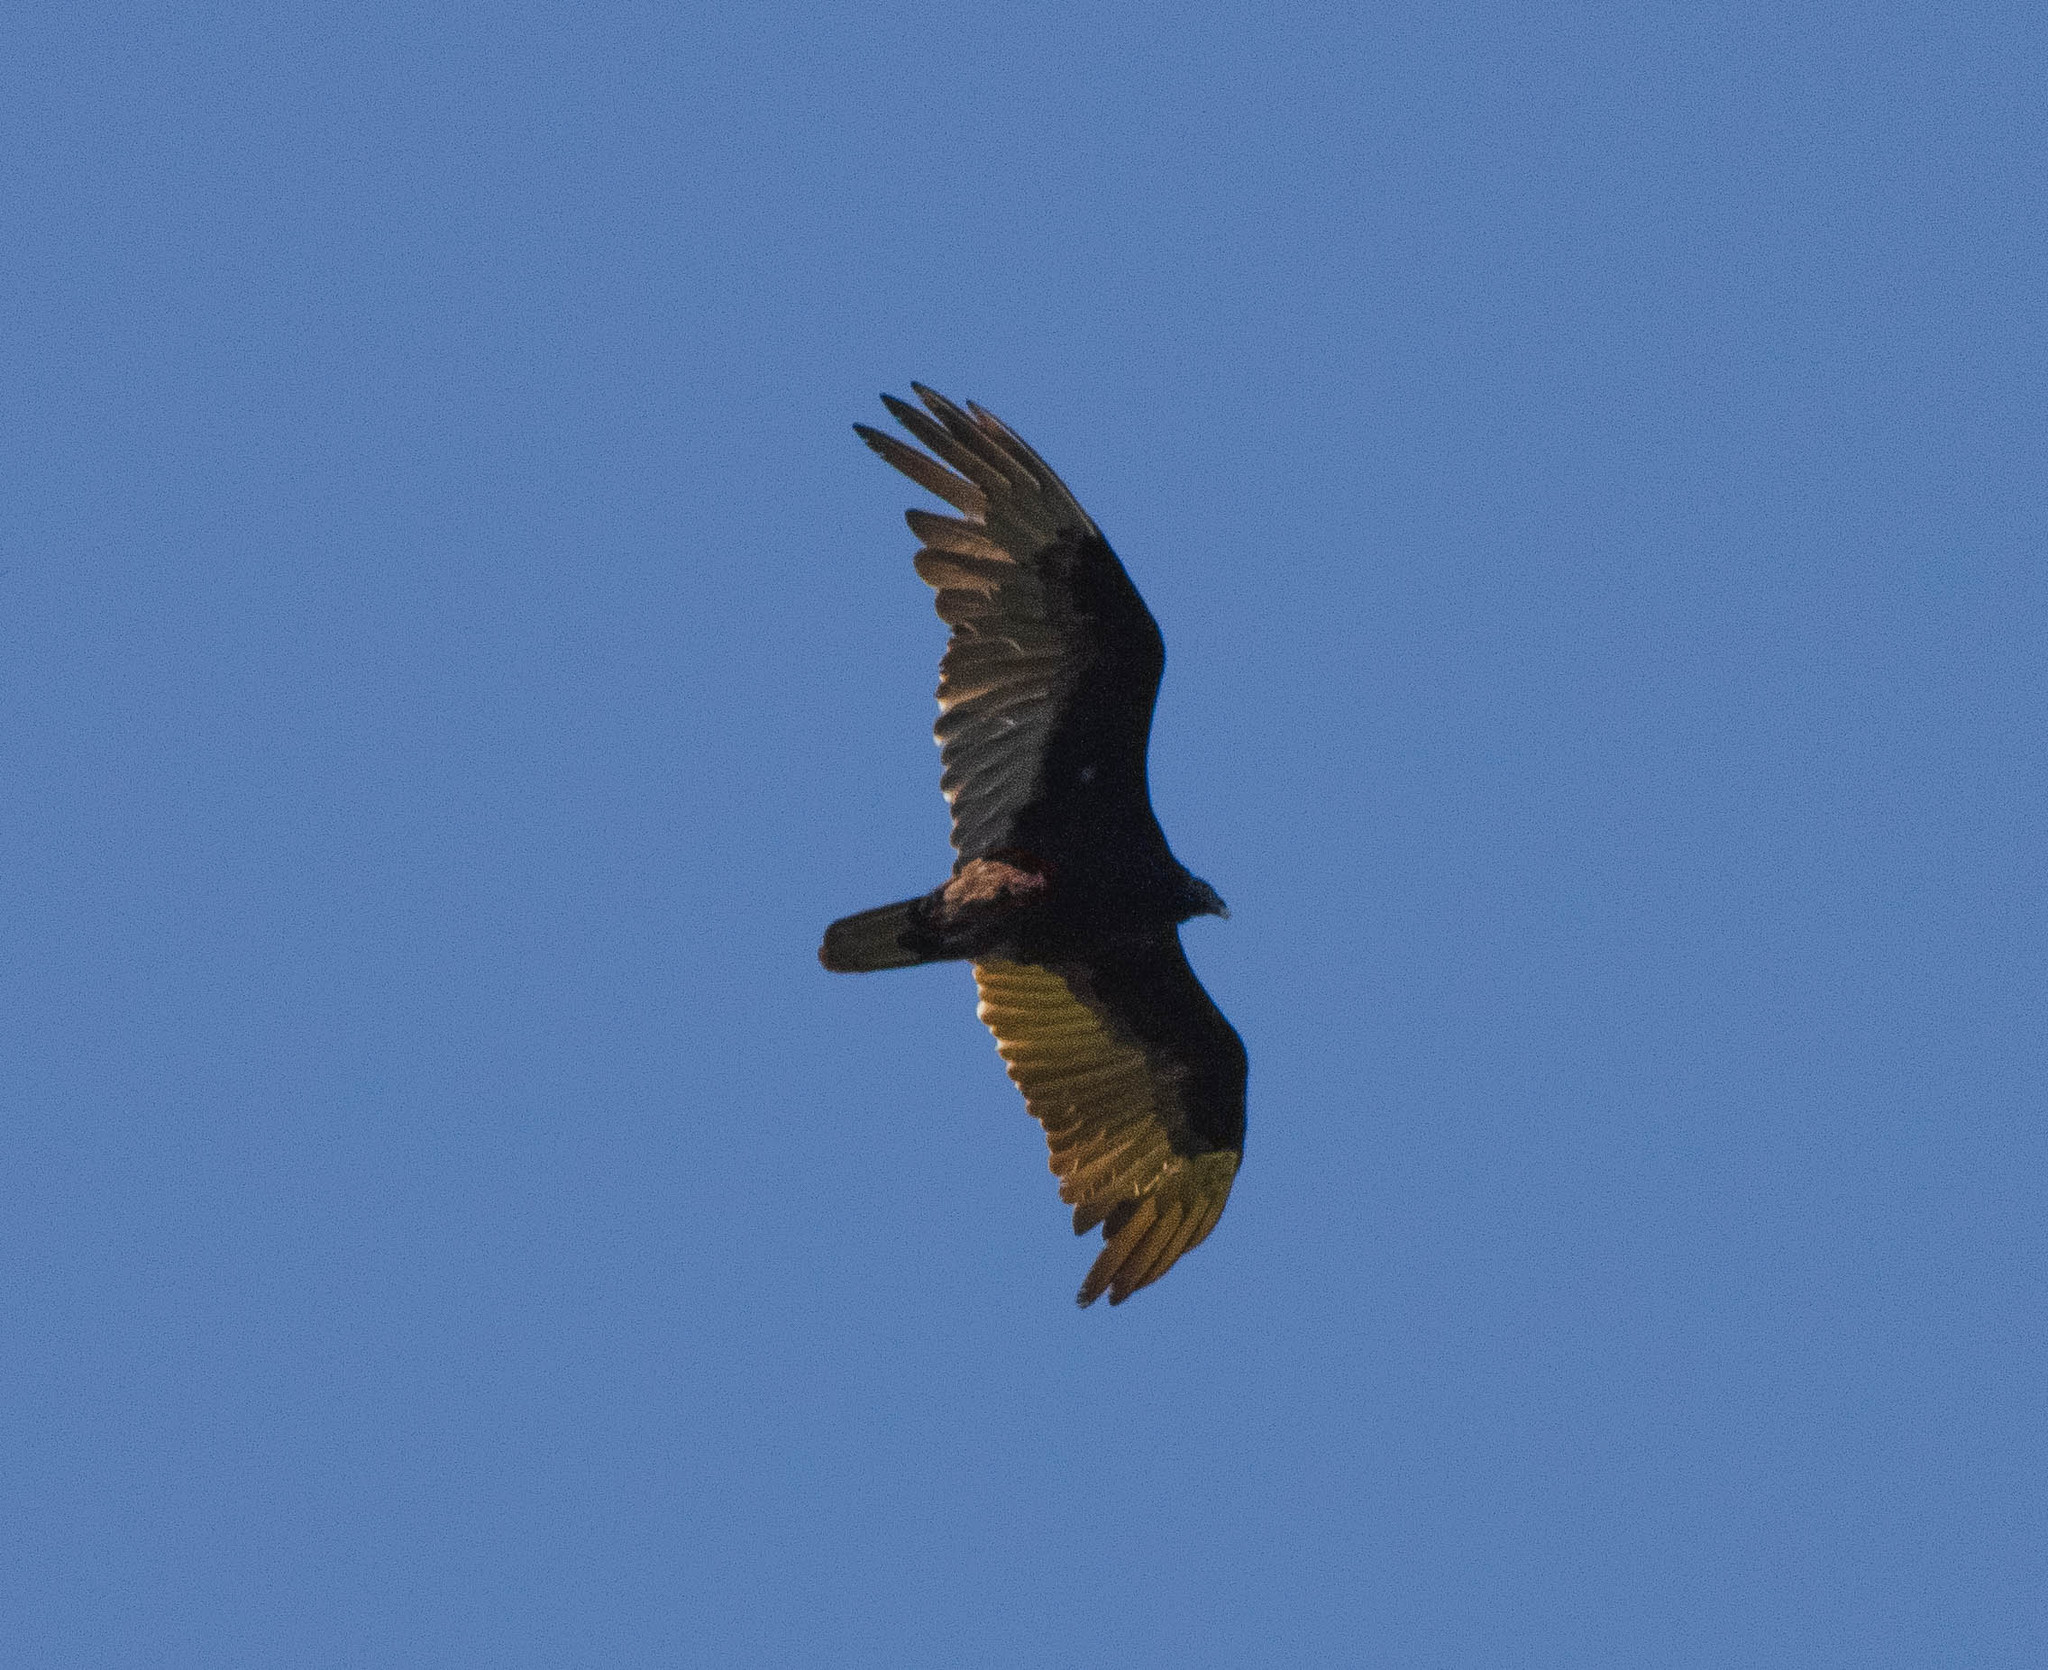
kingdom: Animalia
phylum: Chordata
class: Aves
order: Accipitriformes
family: Cathartidae
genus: Cathartes
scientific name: Cathartes aura
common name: Turkey vulture
